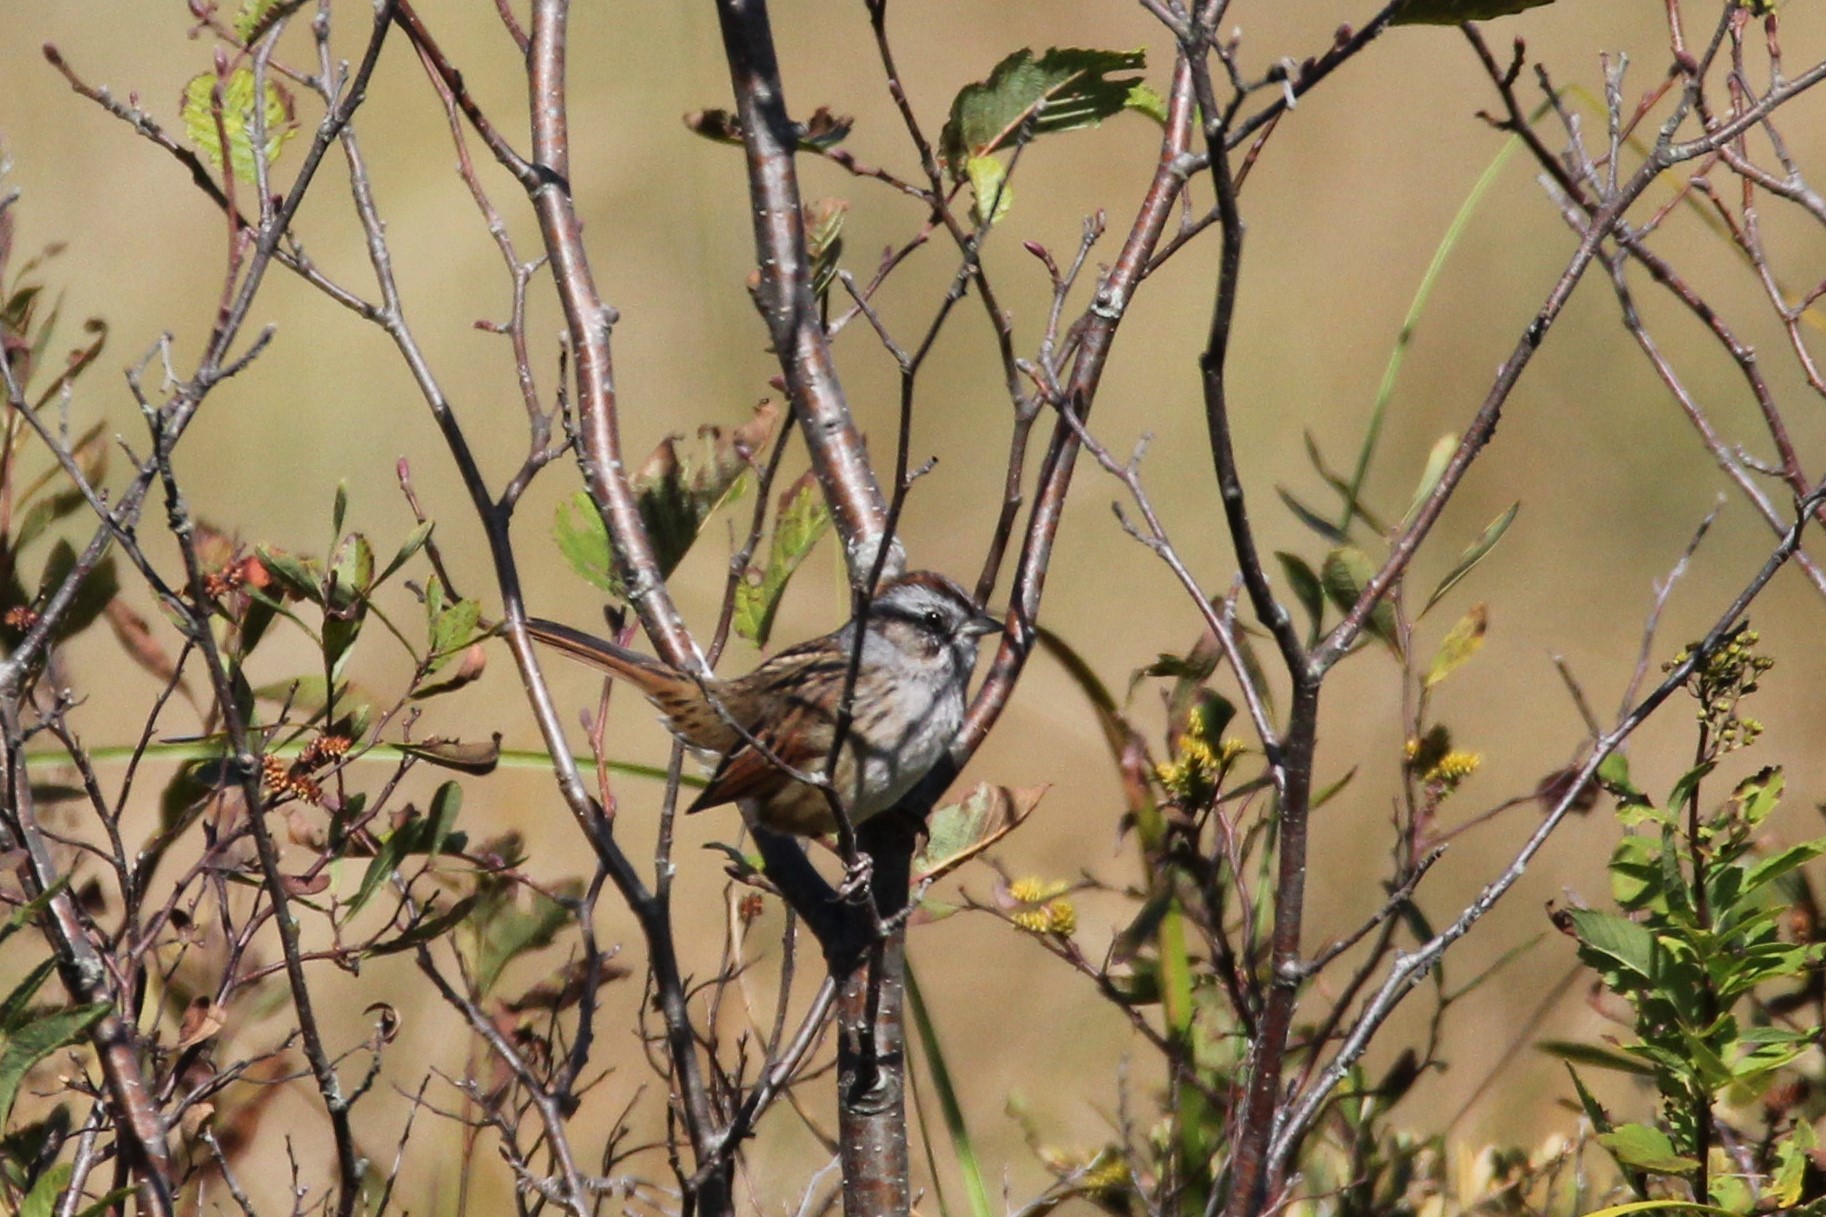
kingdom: Animalia
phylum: Chordata
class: Aves
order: Passeriformes
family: Passerellidae
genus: Melospiza
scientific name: Melospiza georgiana
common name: Swamp sparrow
